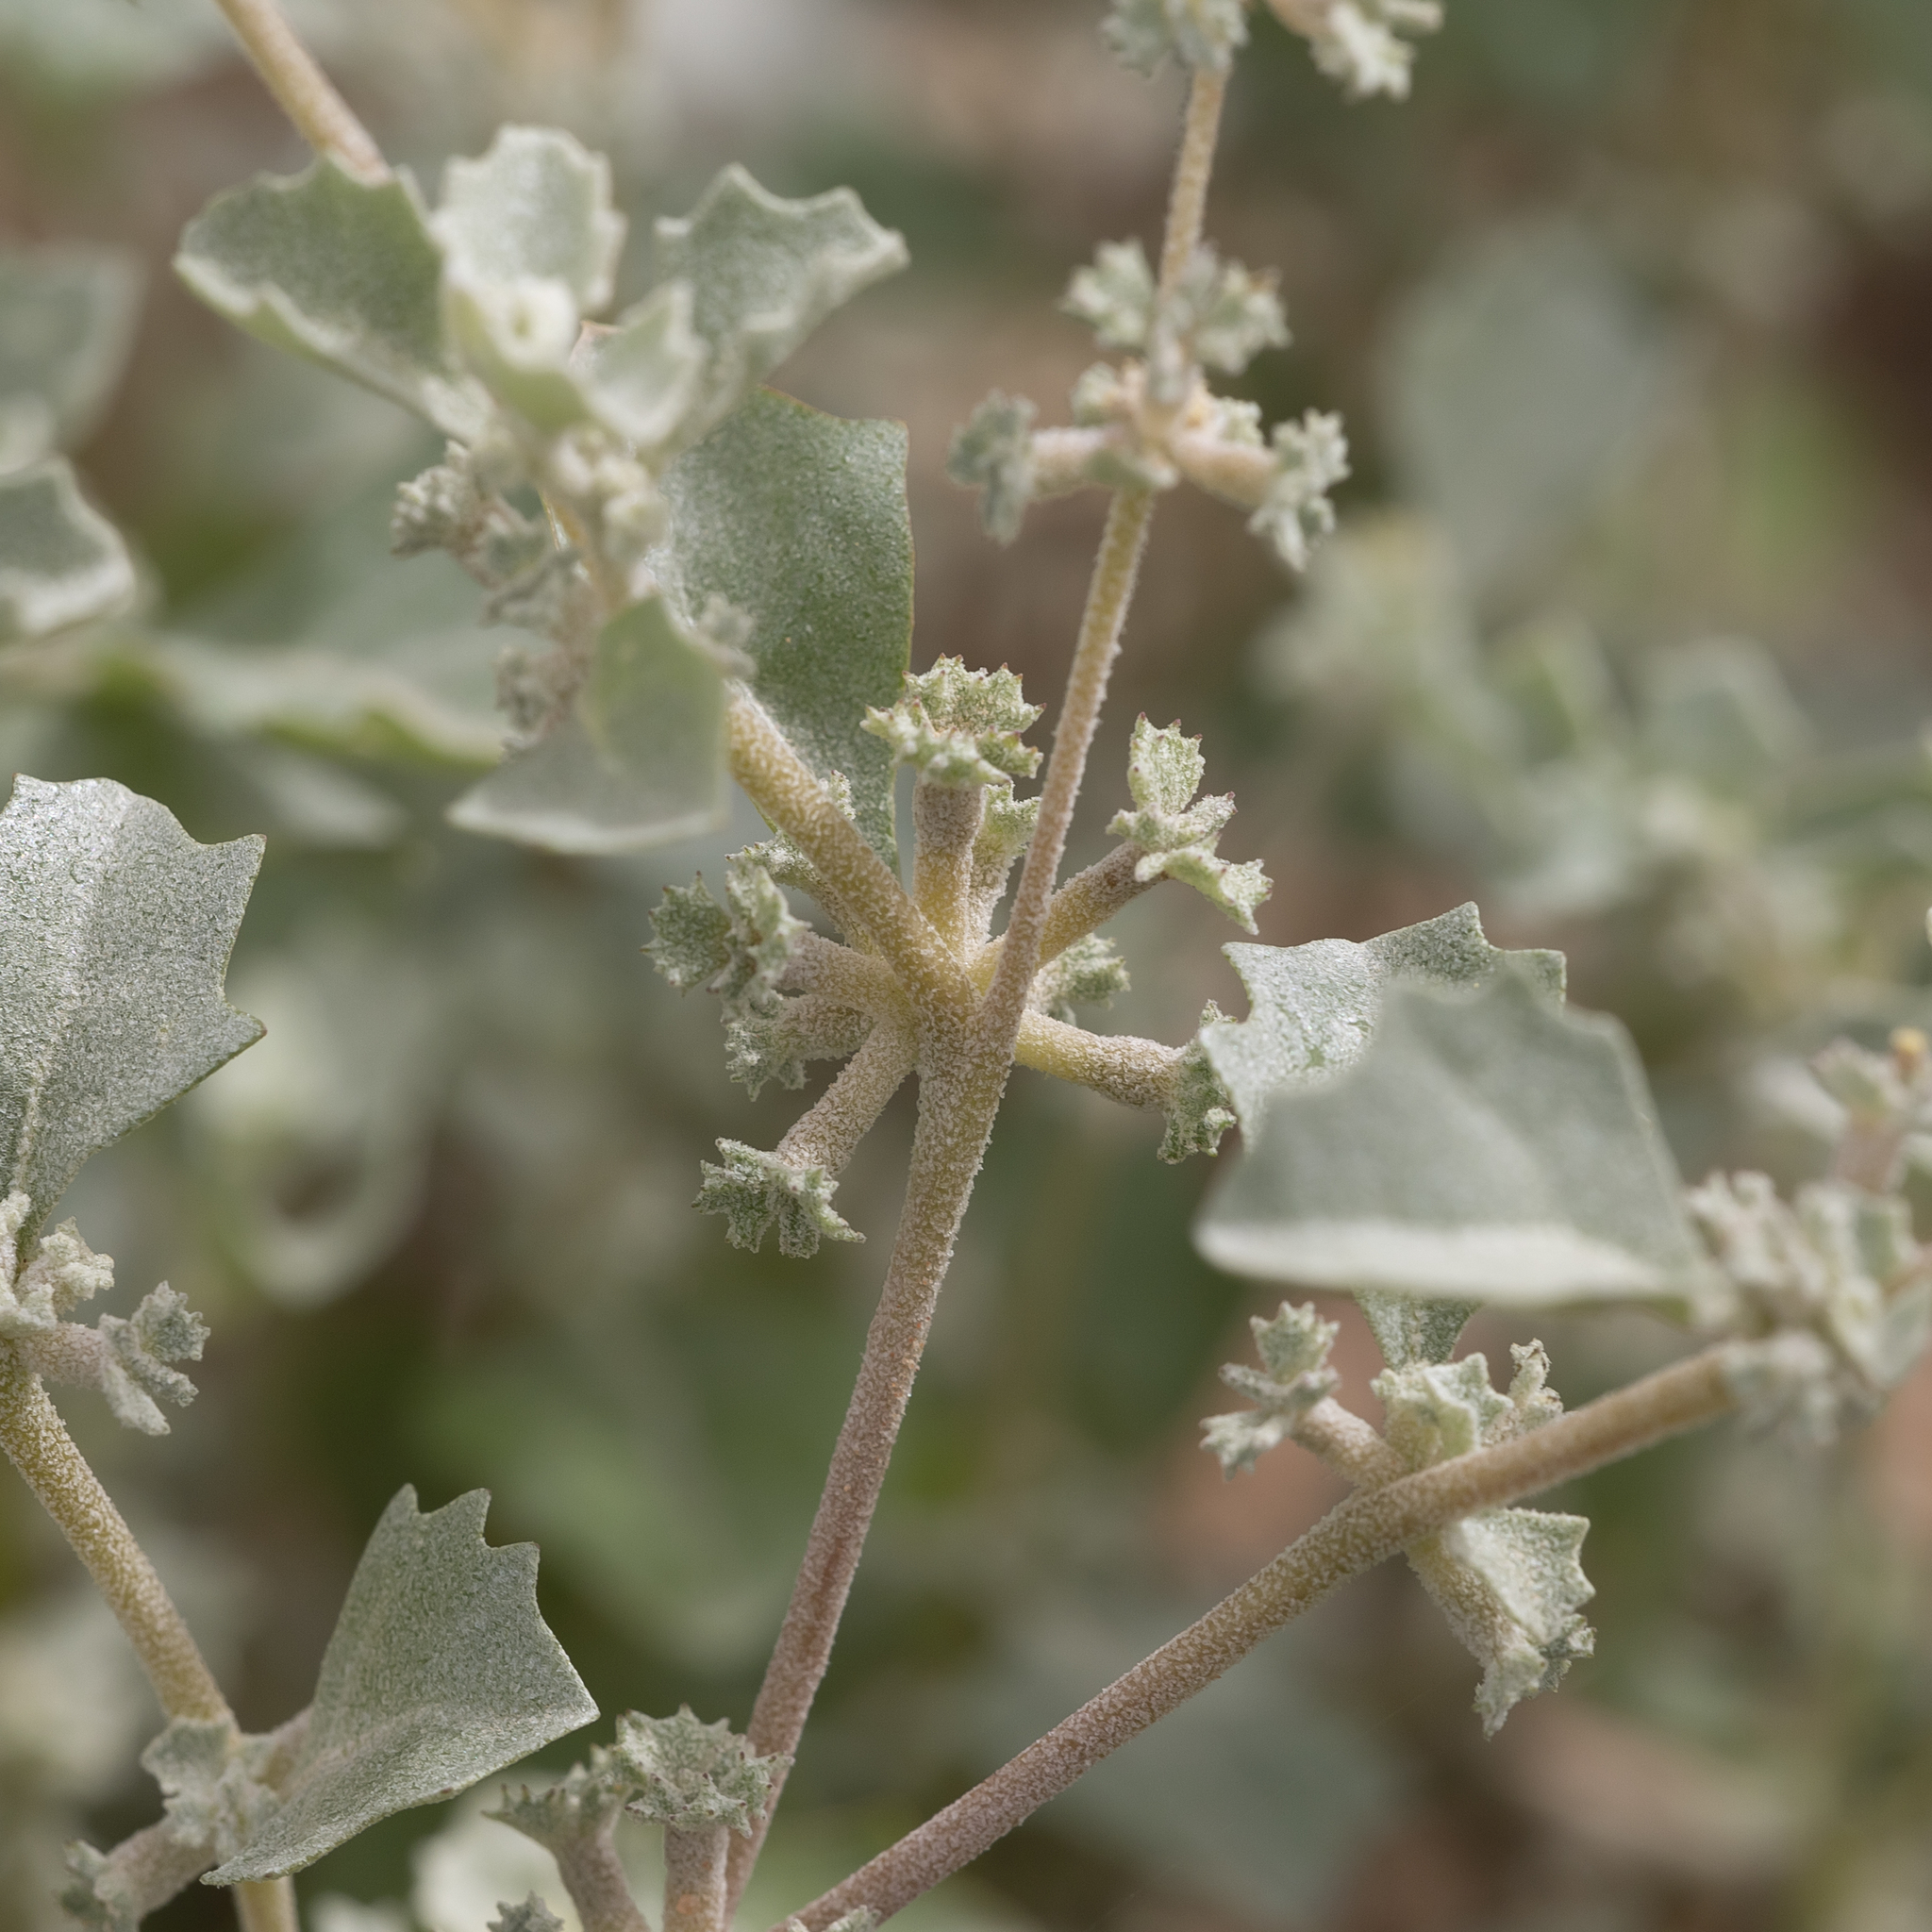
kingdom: Plantae
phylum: Tracheophyta
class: Magnoliopsida
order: Caryophyllales
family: Amaranthaceae
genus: Atriplex
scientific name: Atriplex limbata
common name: Spreading saltbush
